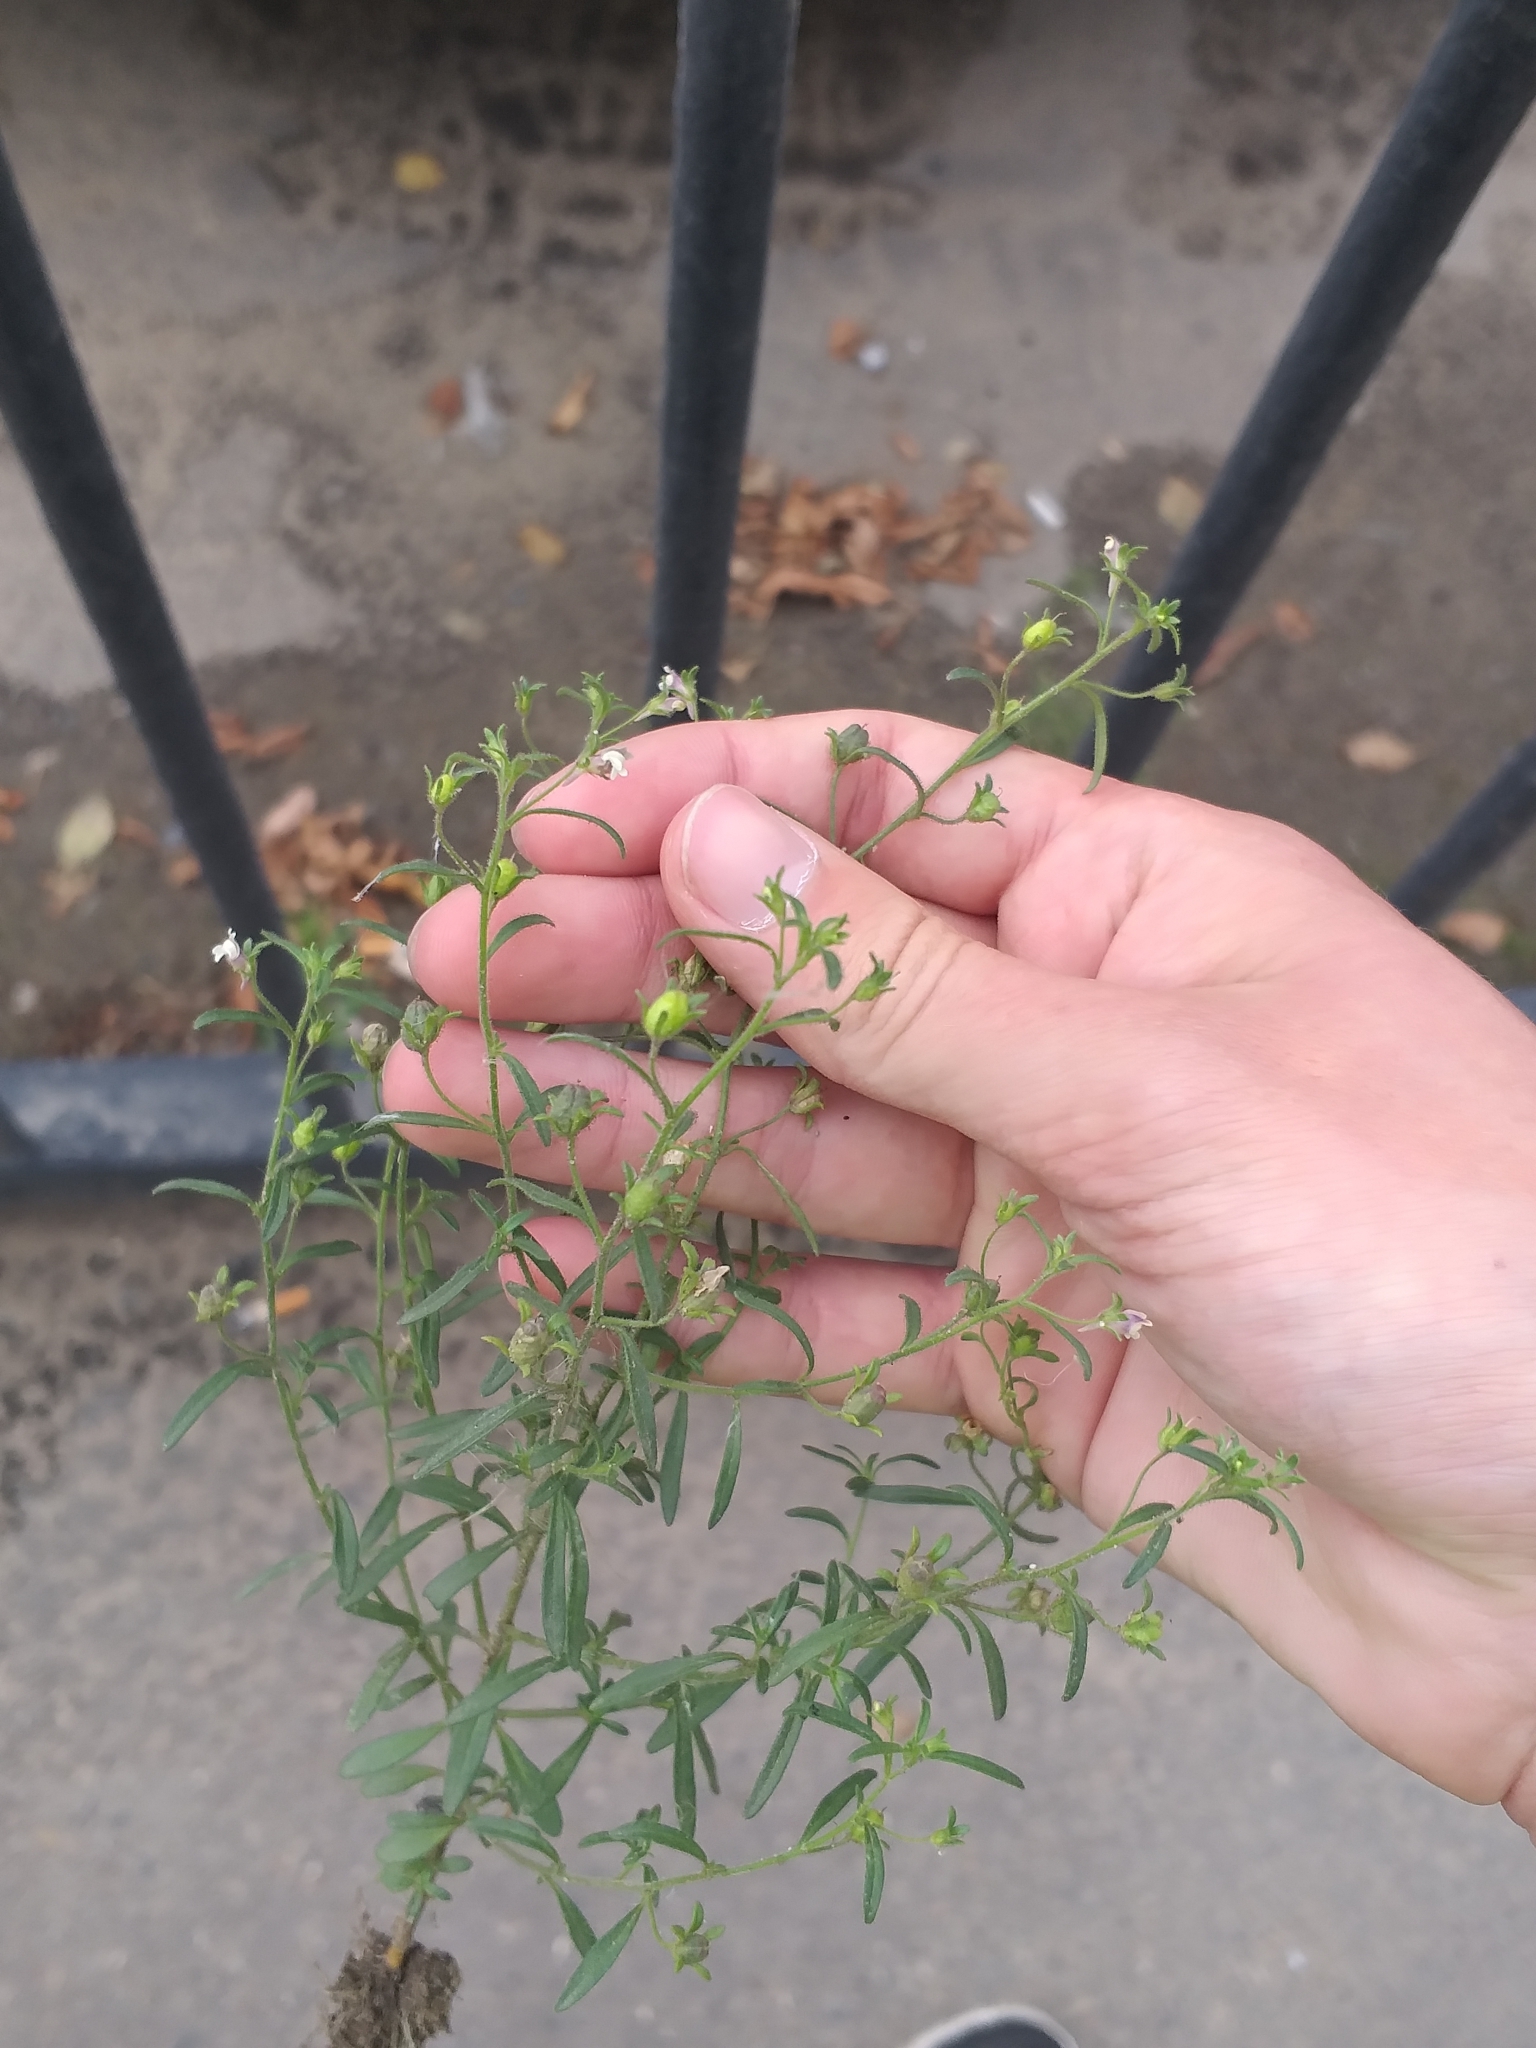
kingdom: Plantae
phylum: Tracheophyta
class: Magnoliopsida
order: Lamiales
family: Plantaginaceae
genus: Chaenorhinum
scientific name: Chaenorhinum minus
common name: Dwarf snapdragon
